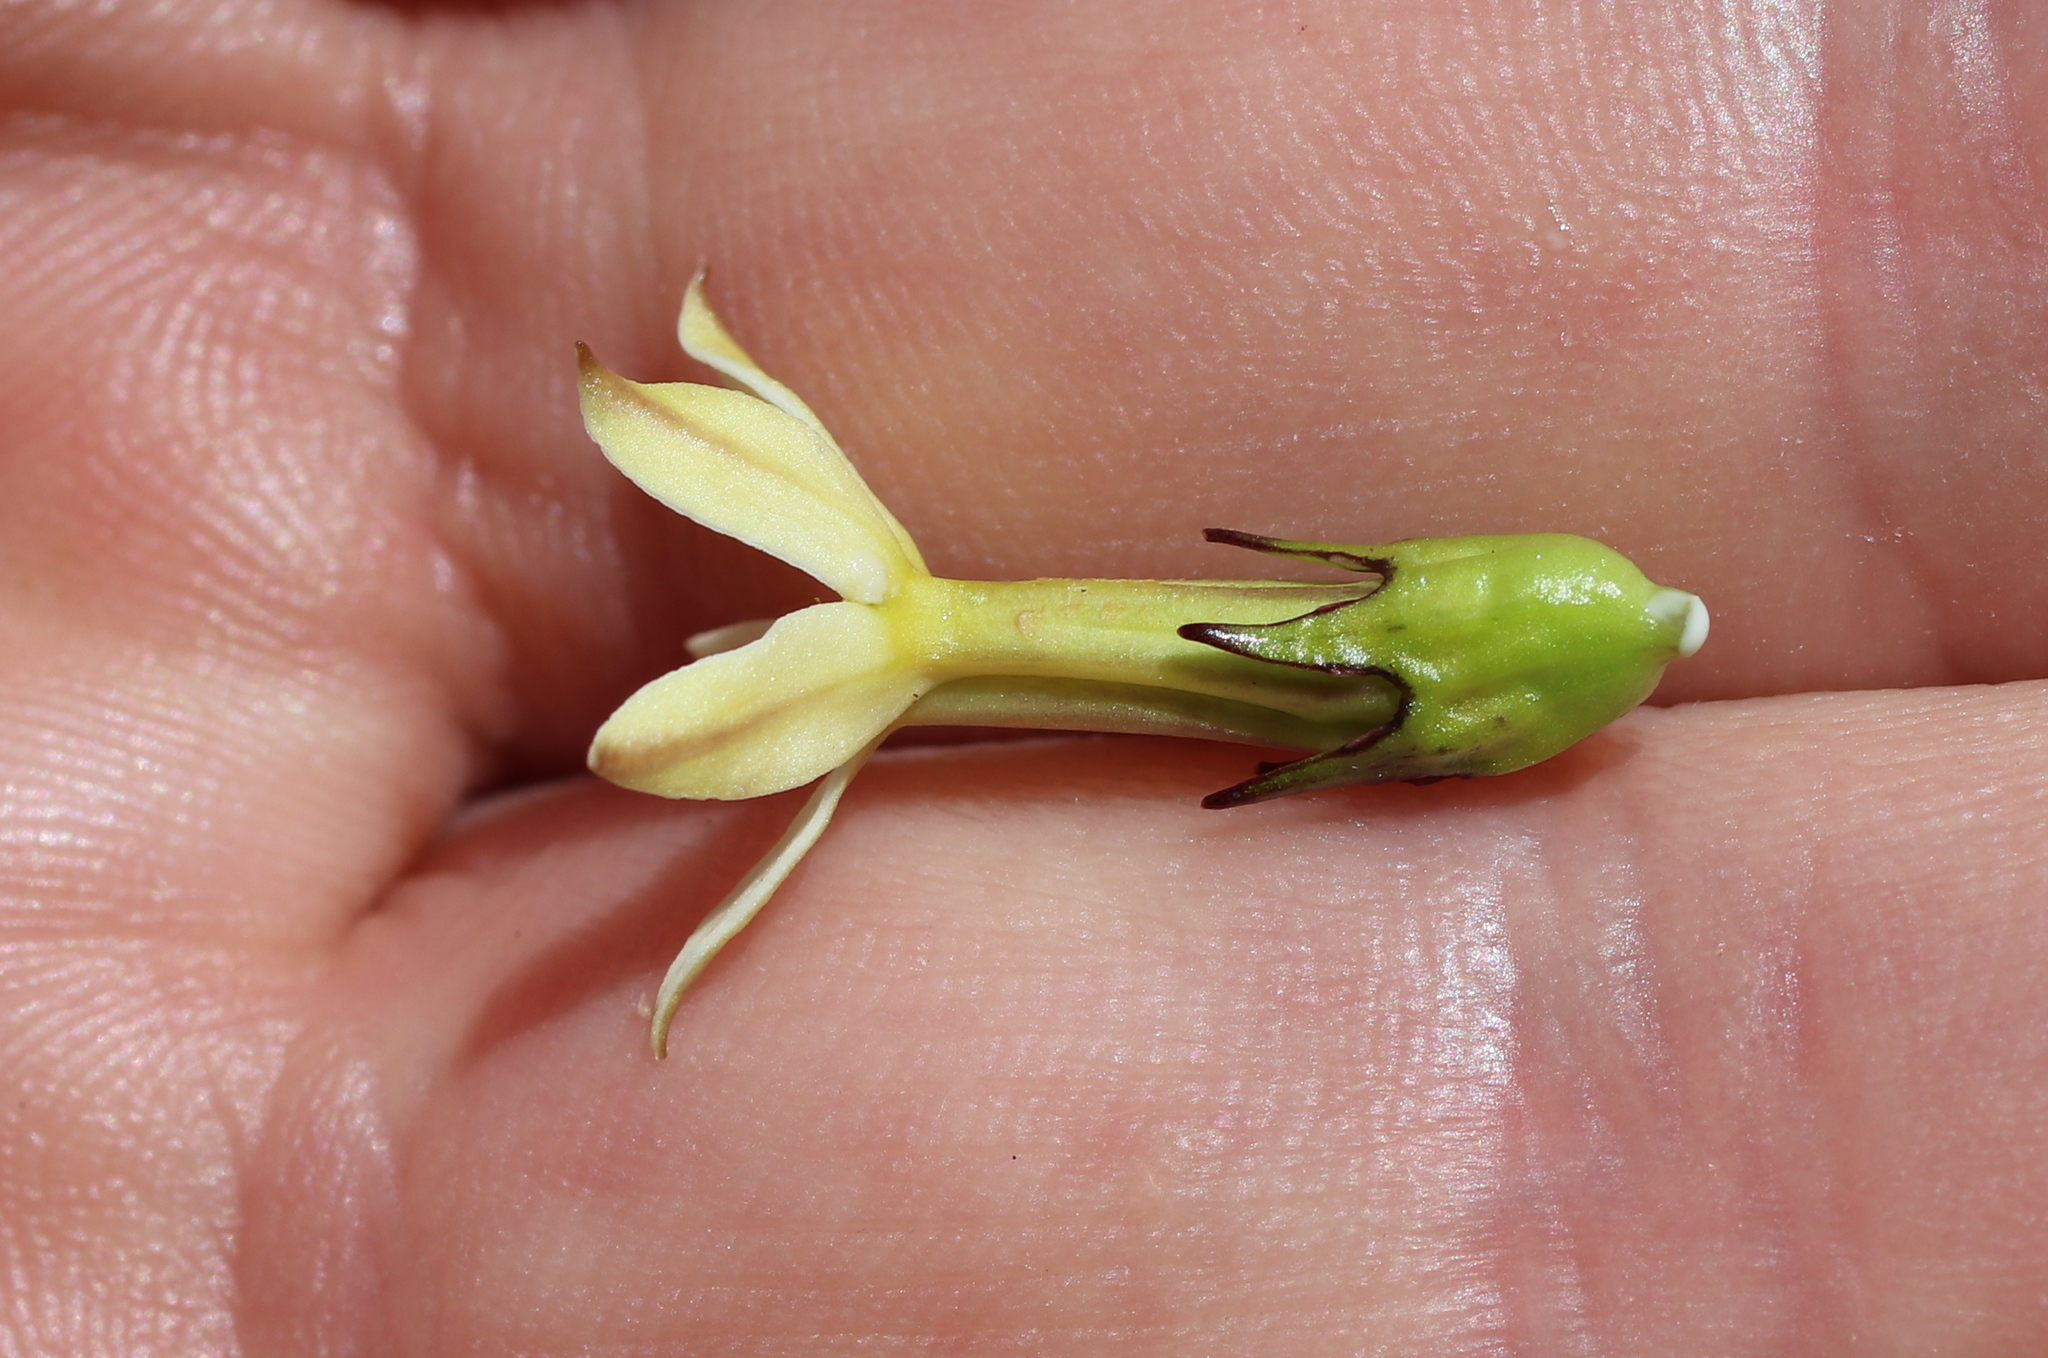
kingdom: Plantae
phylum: Tracheophyta
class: Magnoliopsida
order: Asterales
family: Campanulaceae
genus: Lobelia
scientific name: Lobelia macrodon
